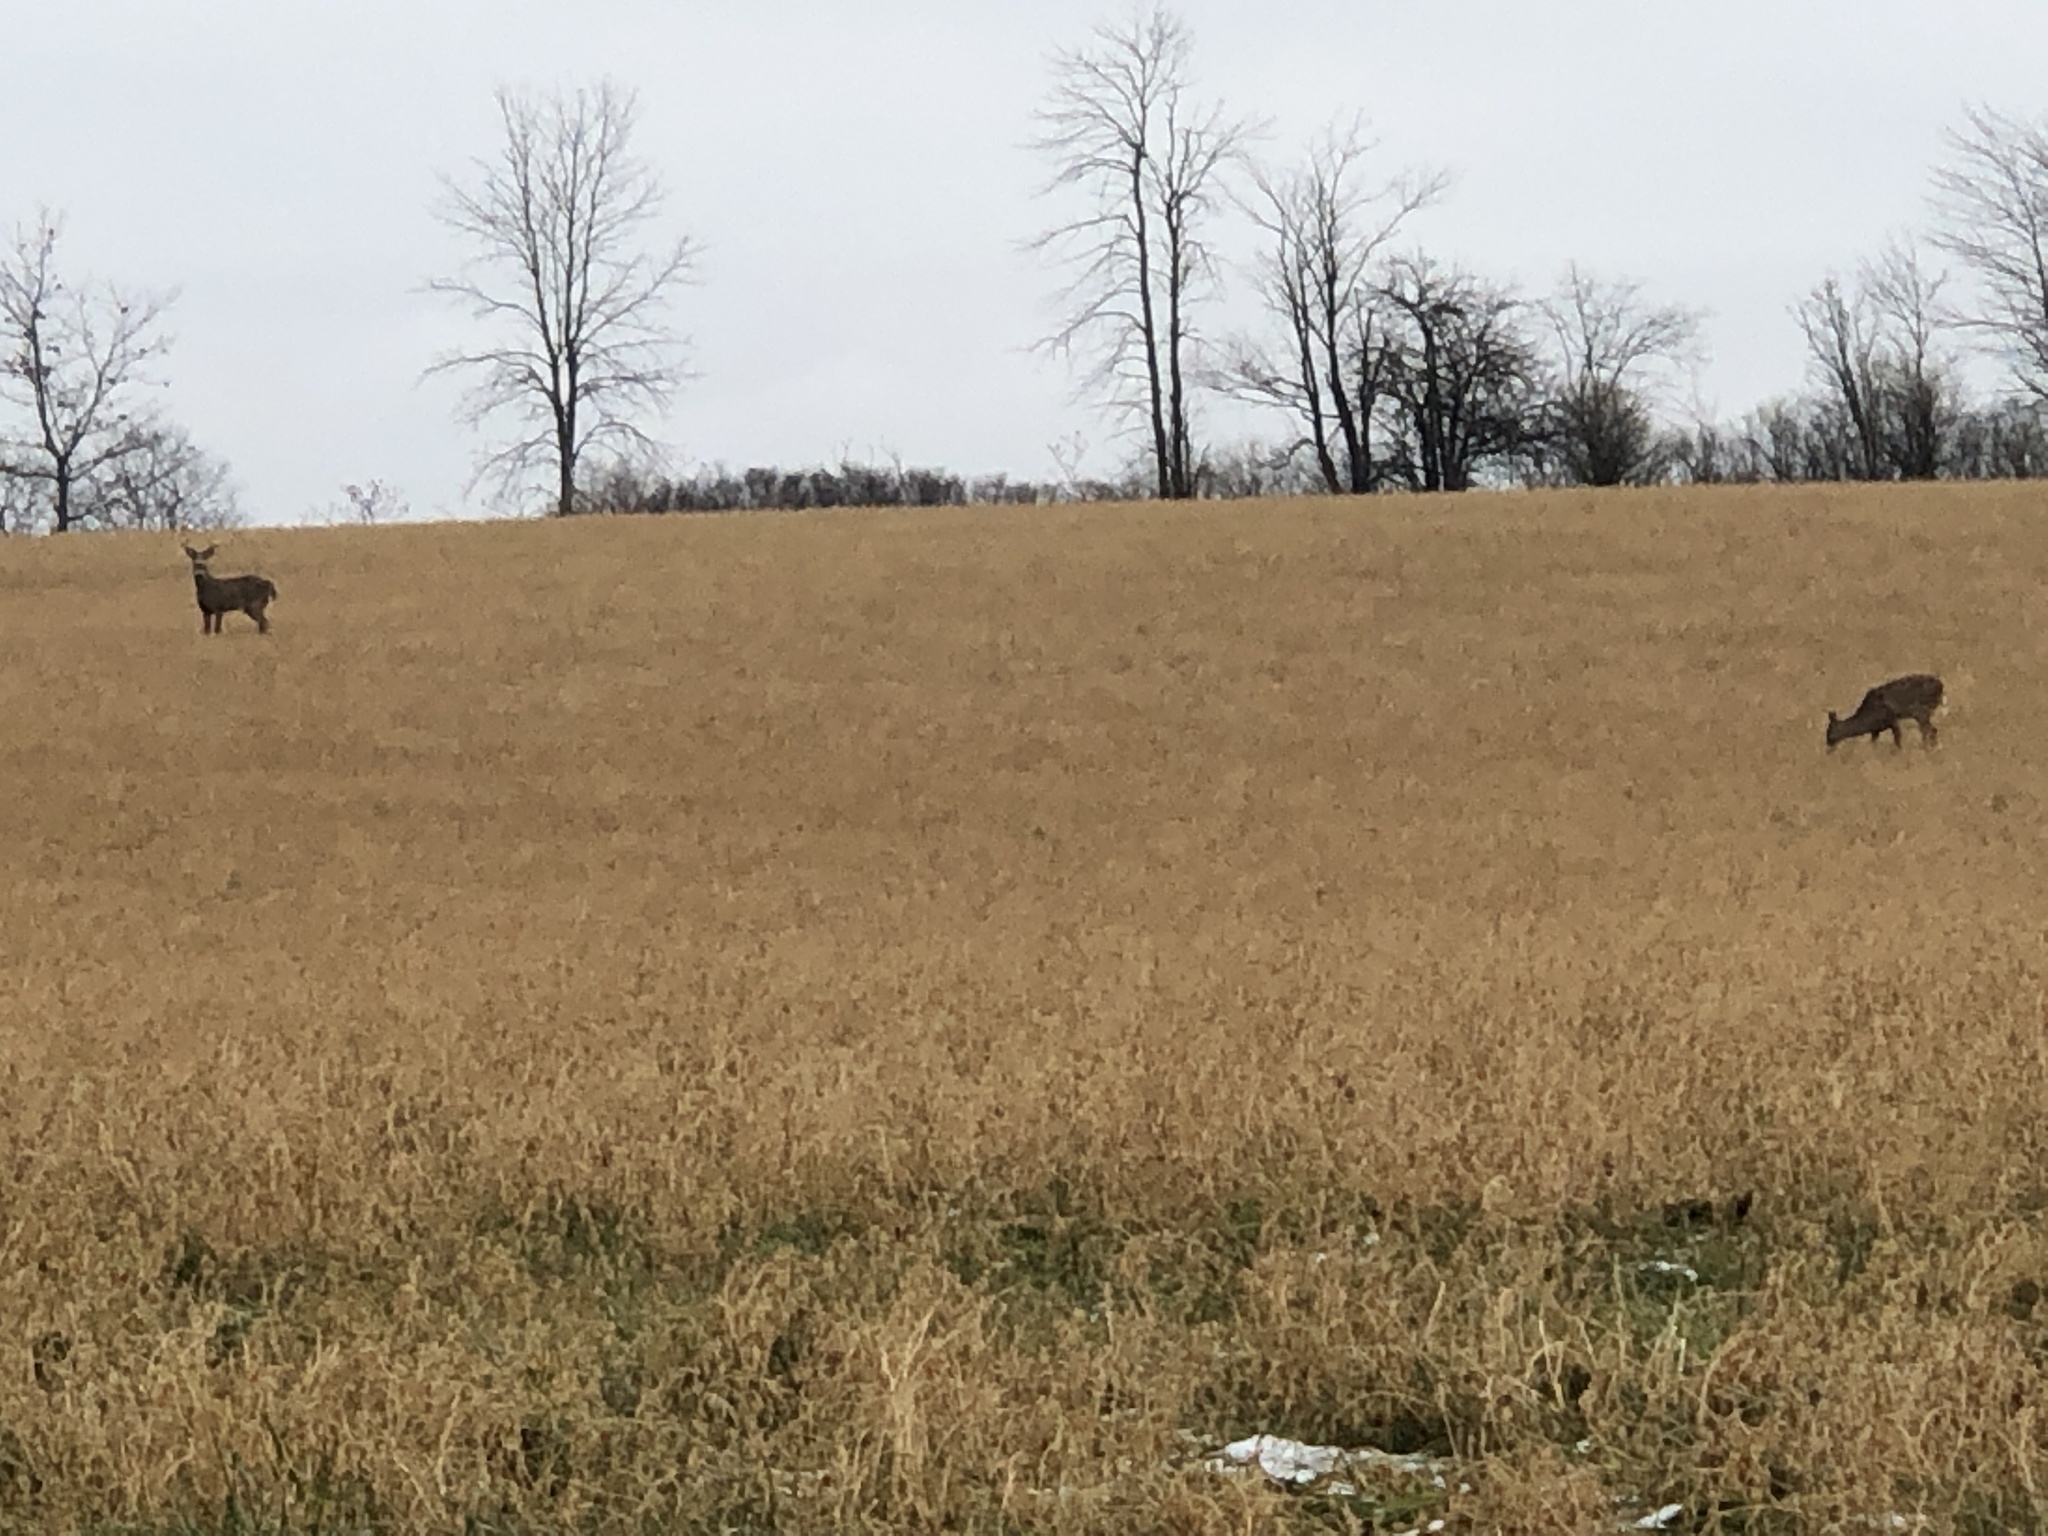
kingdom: Animalia
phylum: Chordata
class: Mammalia
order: Artiodactyla
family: Cervidae
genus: Odocoileus
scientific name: Odocoileus virginianus
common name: White-tailed deer
